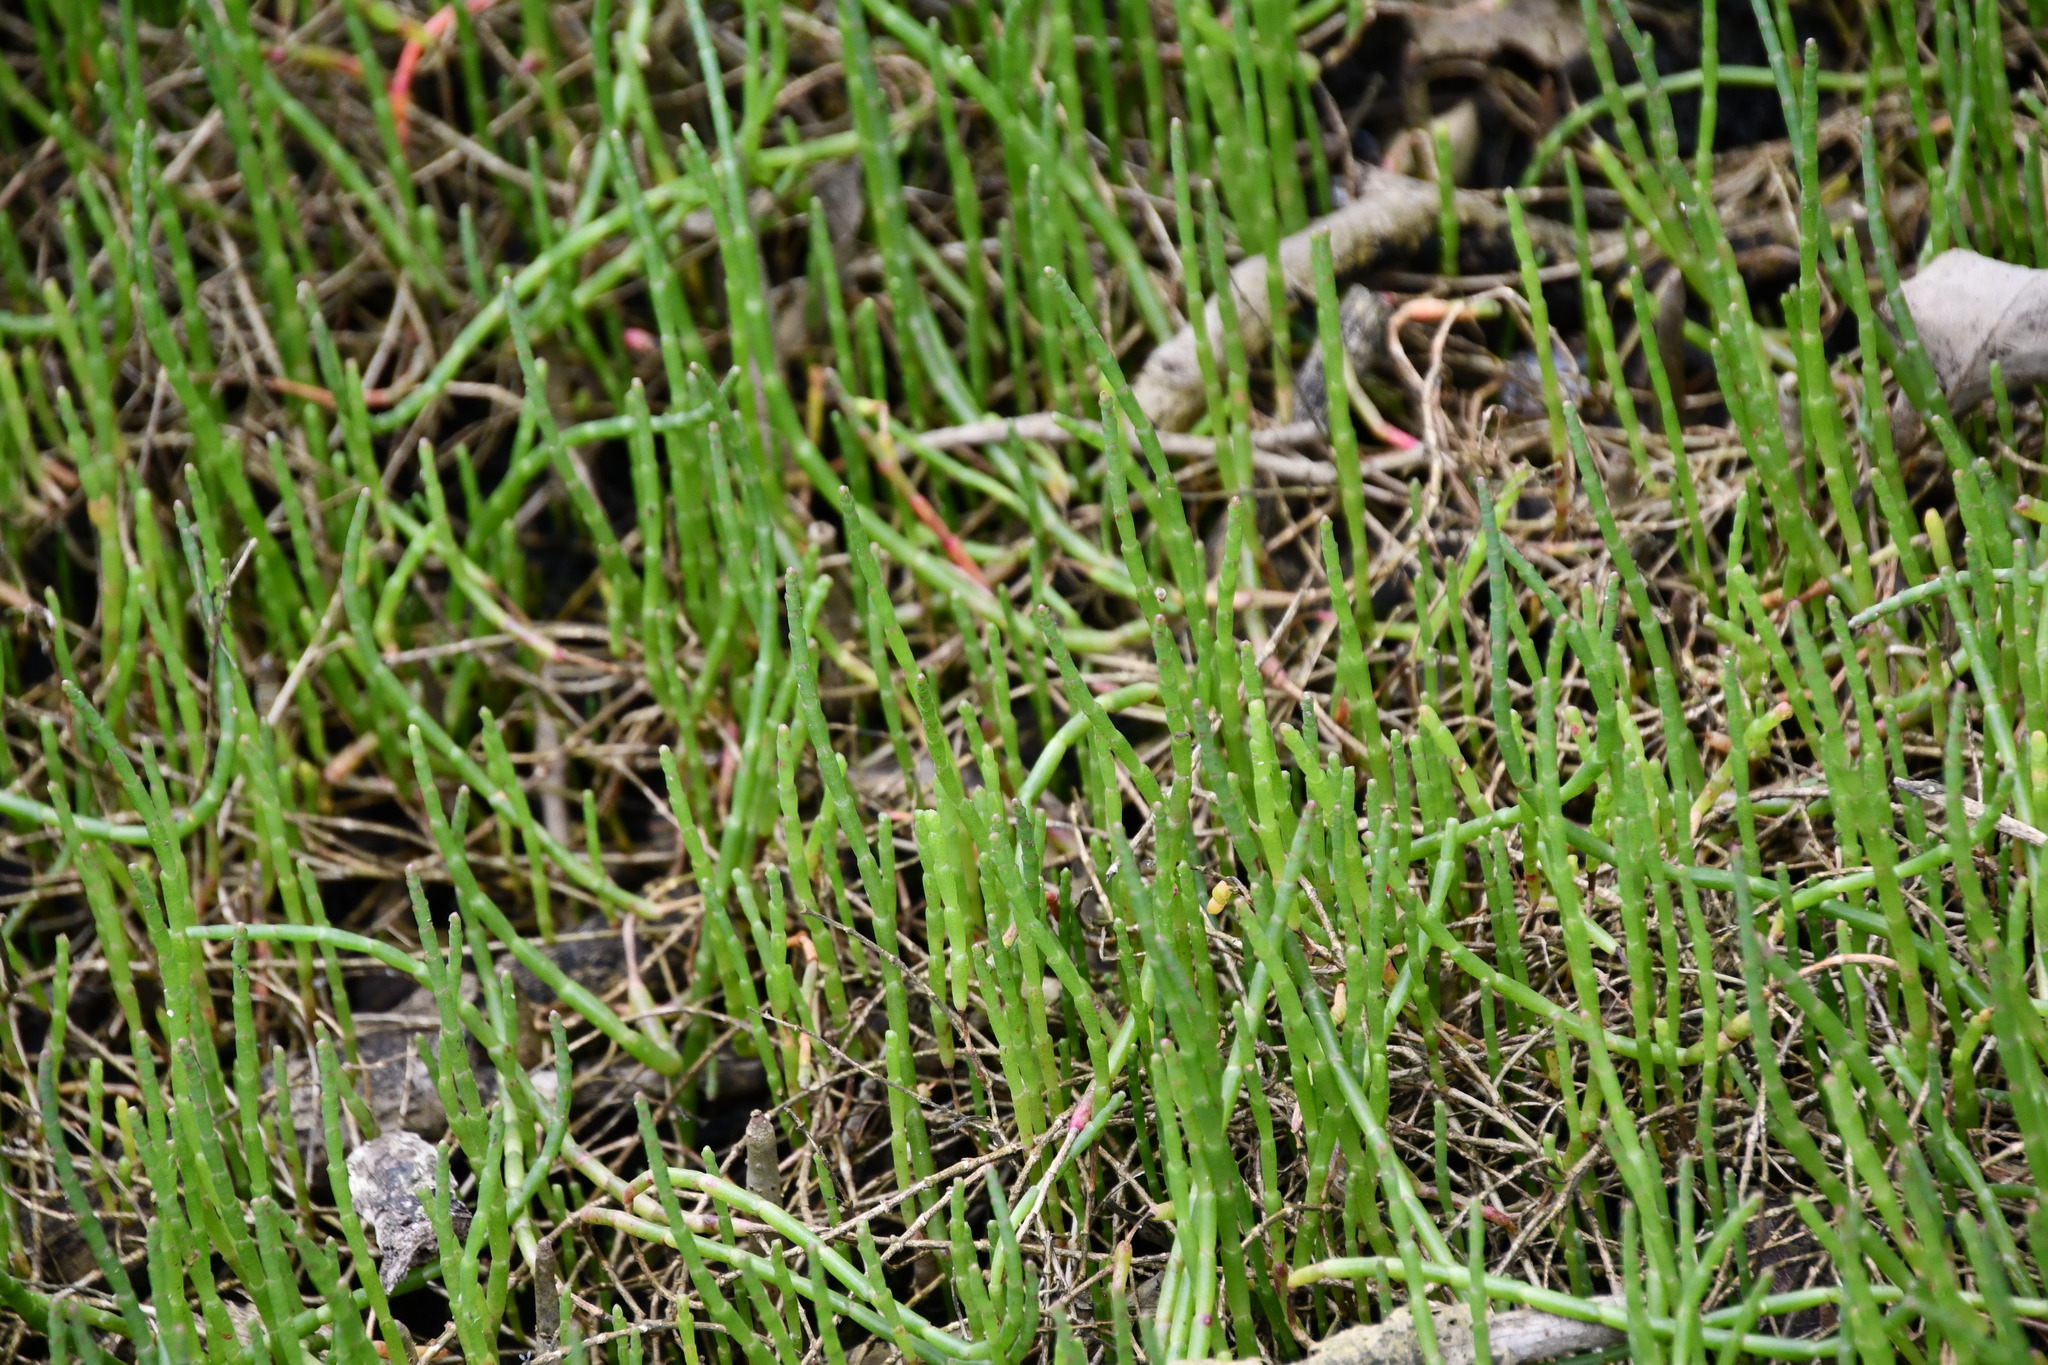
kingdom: Plantae
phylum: Tracheophyta
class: Magnoliopsida
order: Caryophyllales
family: Amaranthaceae
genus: Salicornia
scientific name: Salicornia quinqueflora
